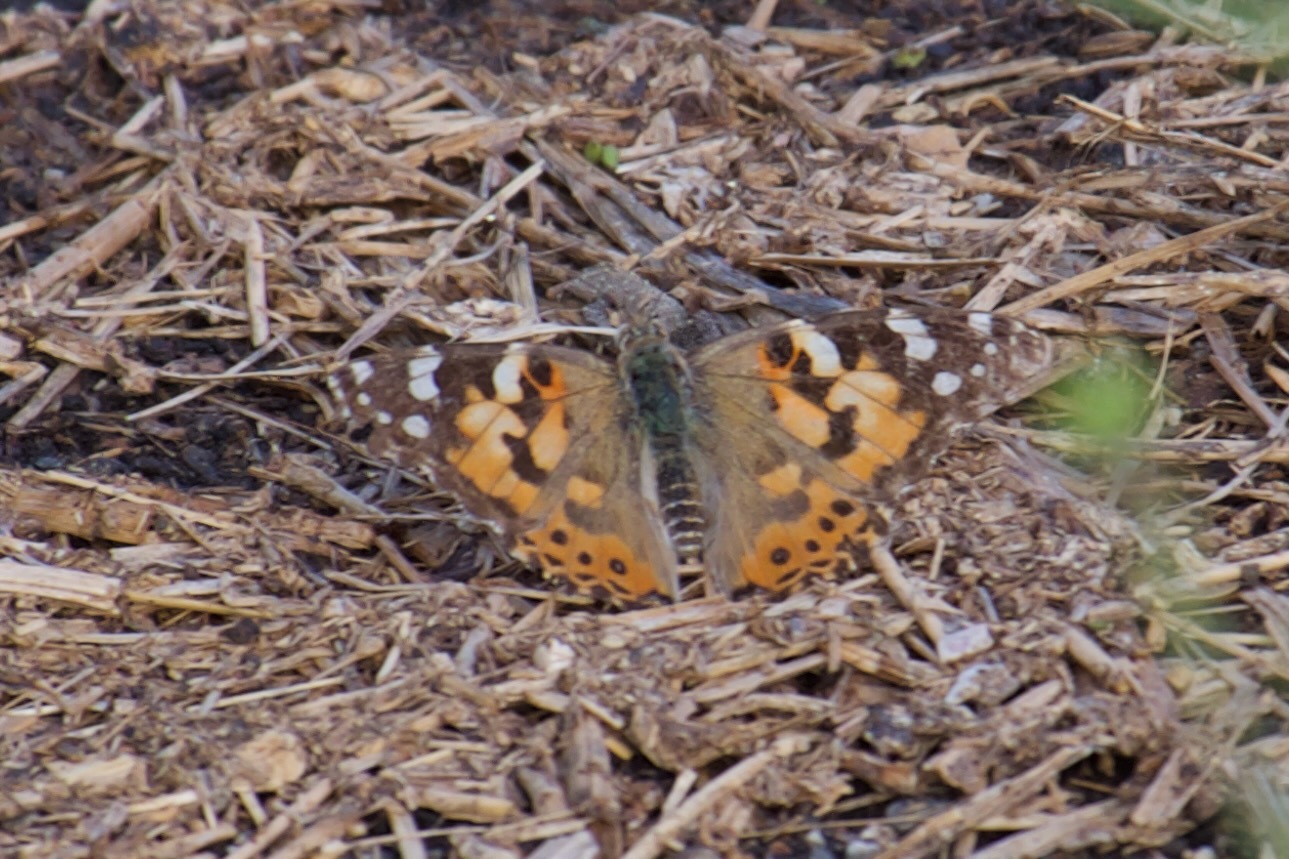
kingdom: Animalia
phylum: Arthropoda
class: Insecta
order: Lepidoptera
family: Nymphalidae
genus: Vanessa
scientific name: Vanessa cardui
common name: Painted lady
